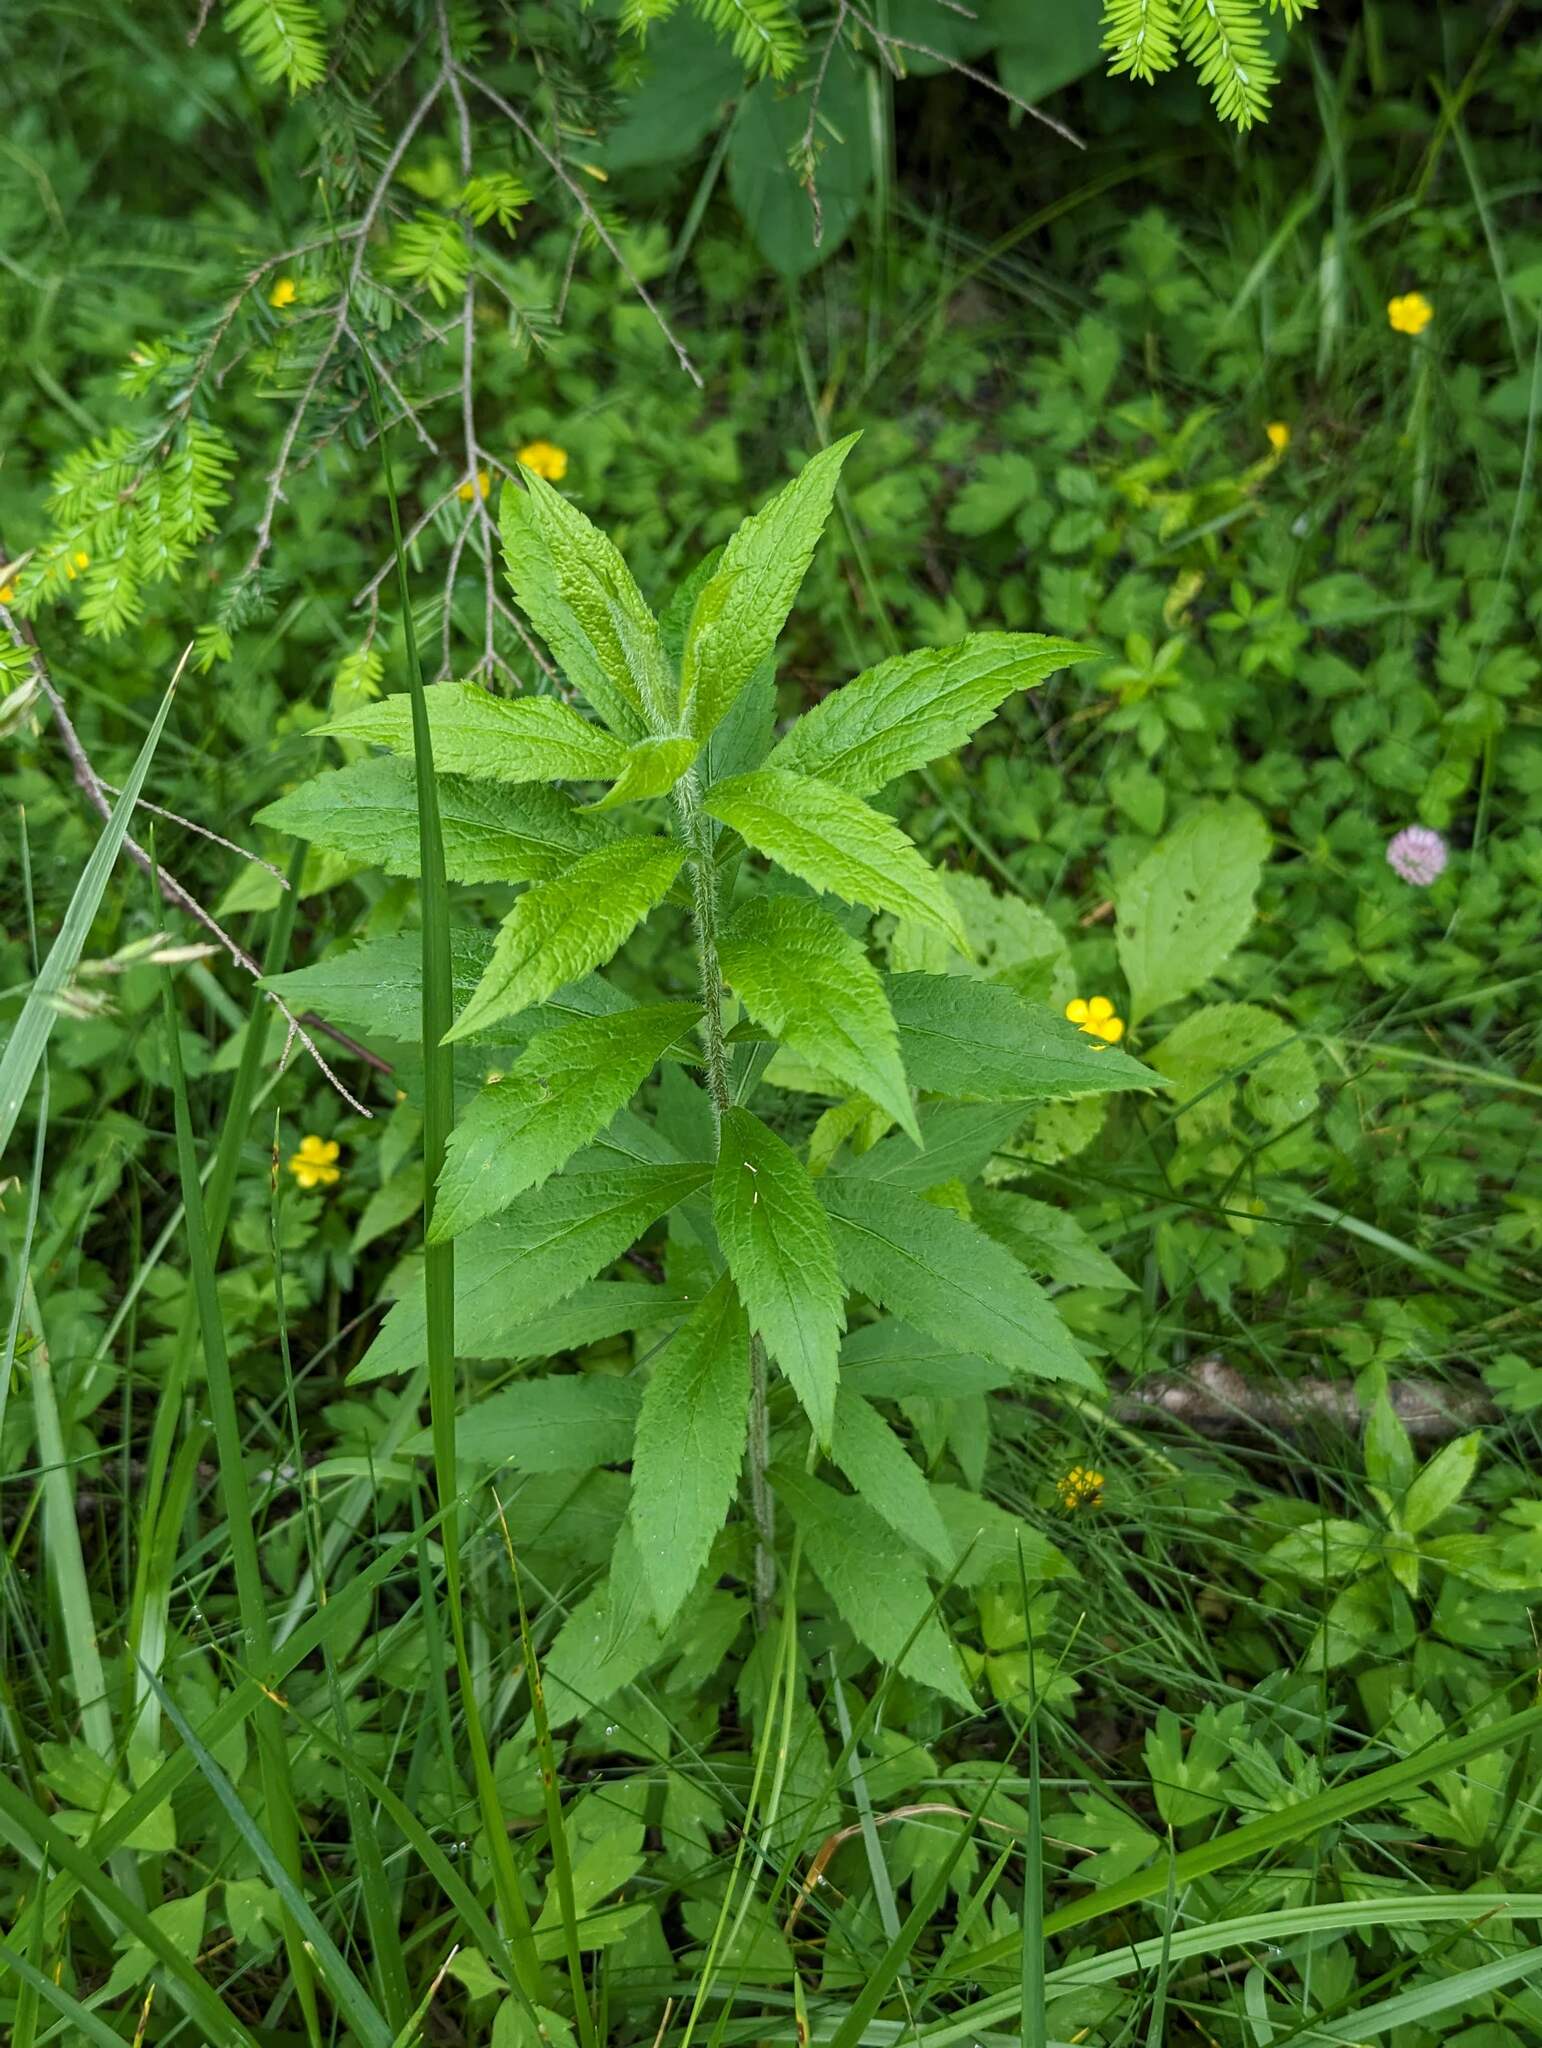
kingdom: Plantae
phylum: Tracheophyta
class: Magnoliopsida
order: Asterales
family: Asteraceae
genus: Solidago
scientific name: Solidago rugosa
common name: Rough-stemmed goldenrod
